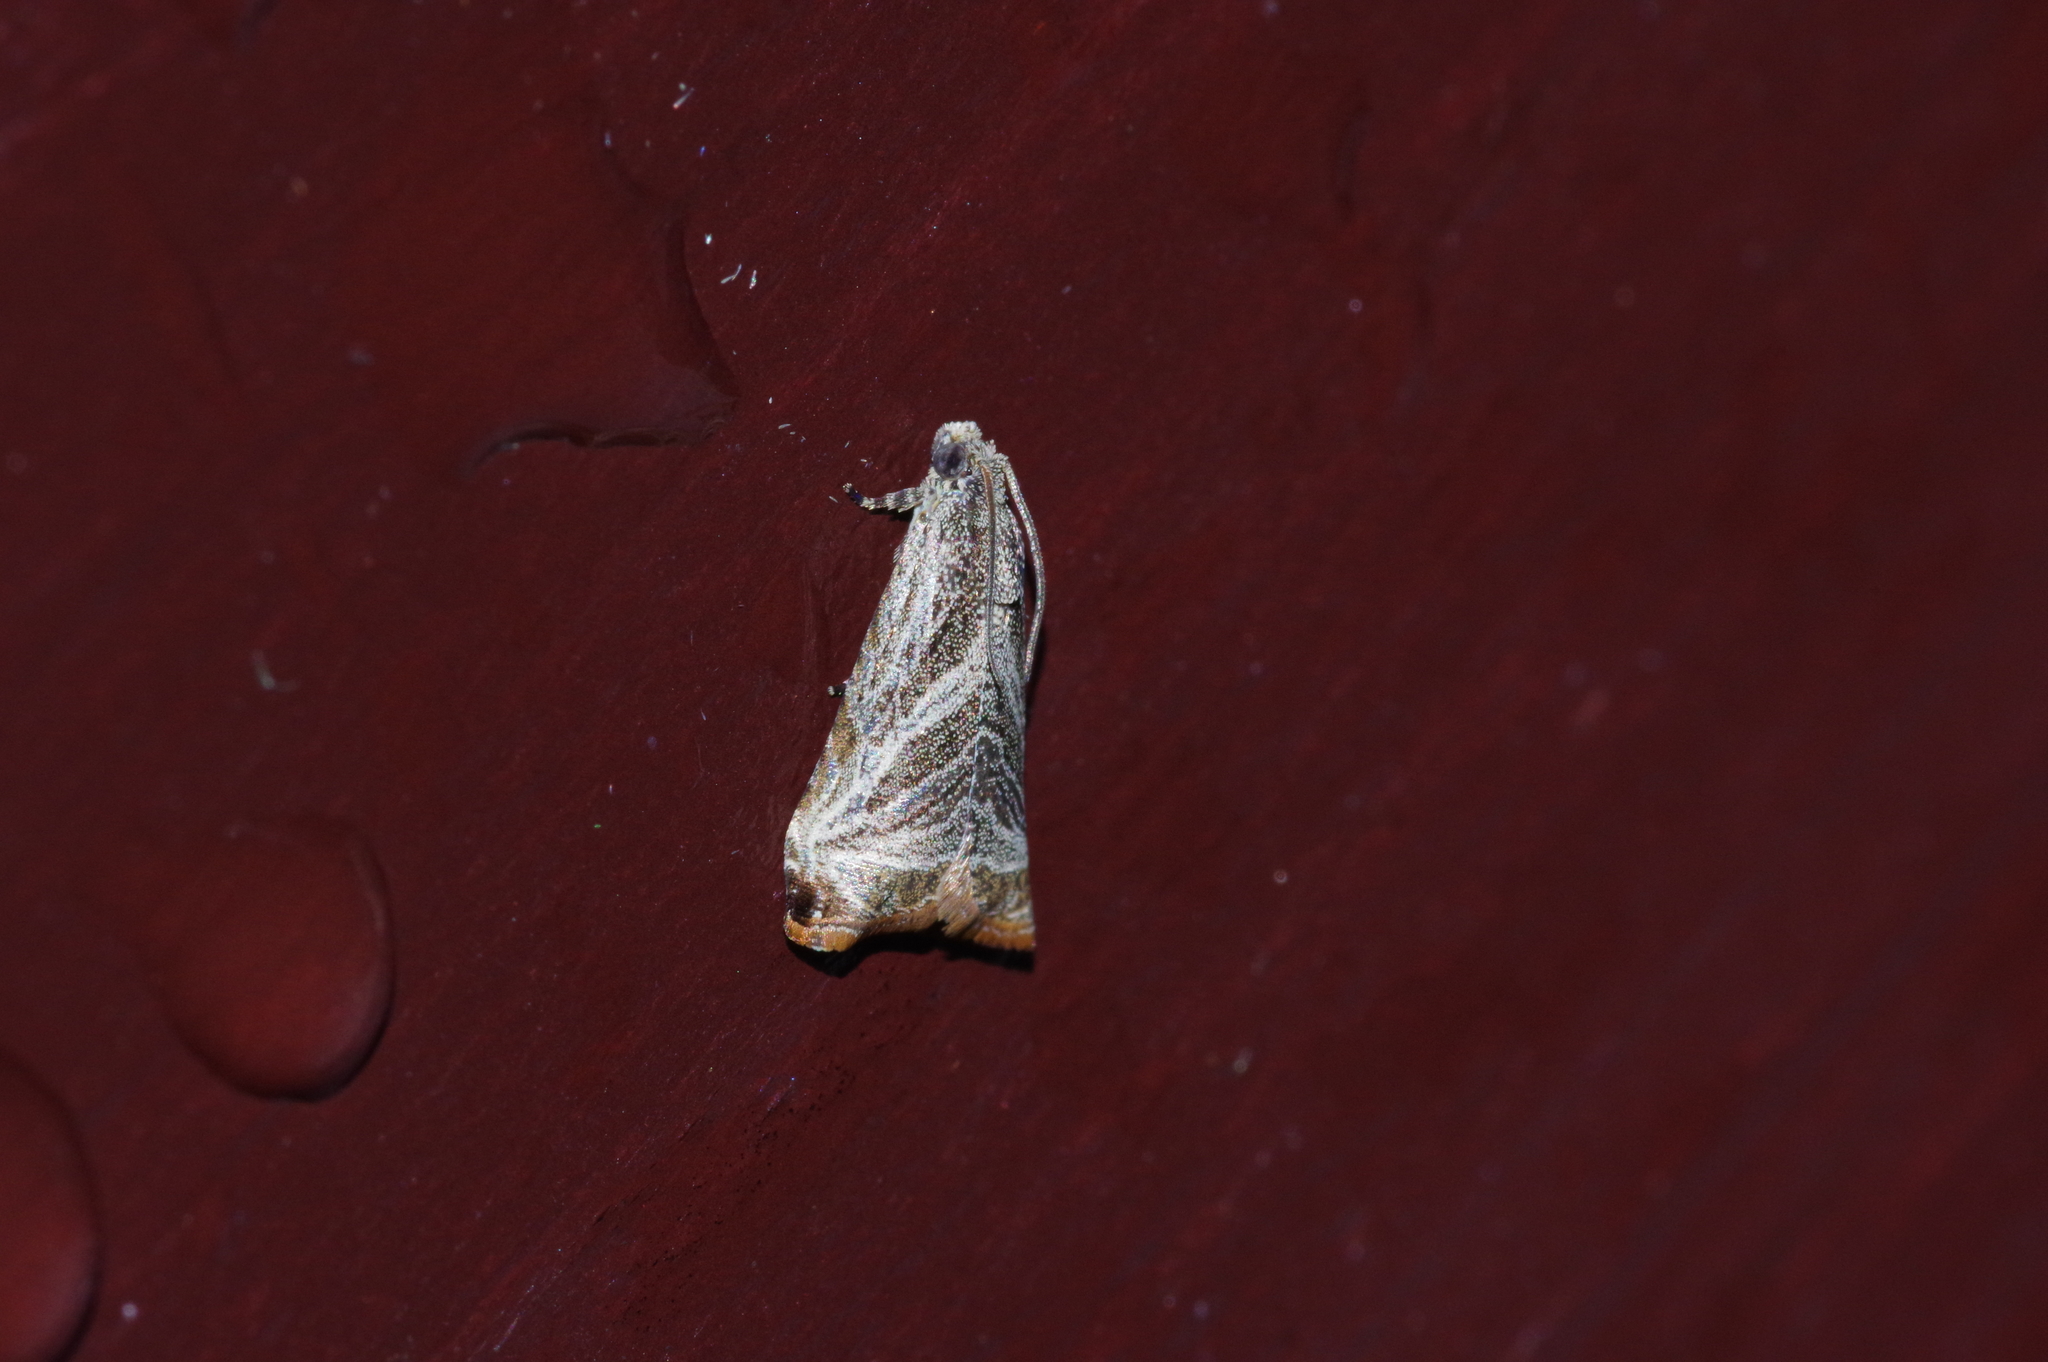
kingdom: Animalia
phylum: Arthropoda
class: Insecta
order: Lepidoptera
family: Tortricidae
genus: Dactylioglypha
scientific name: Dactylioglypha tonica
